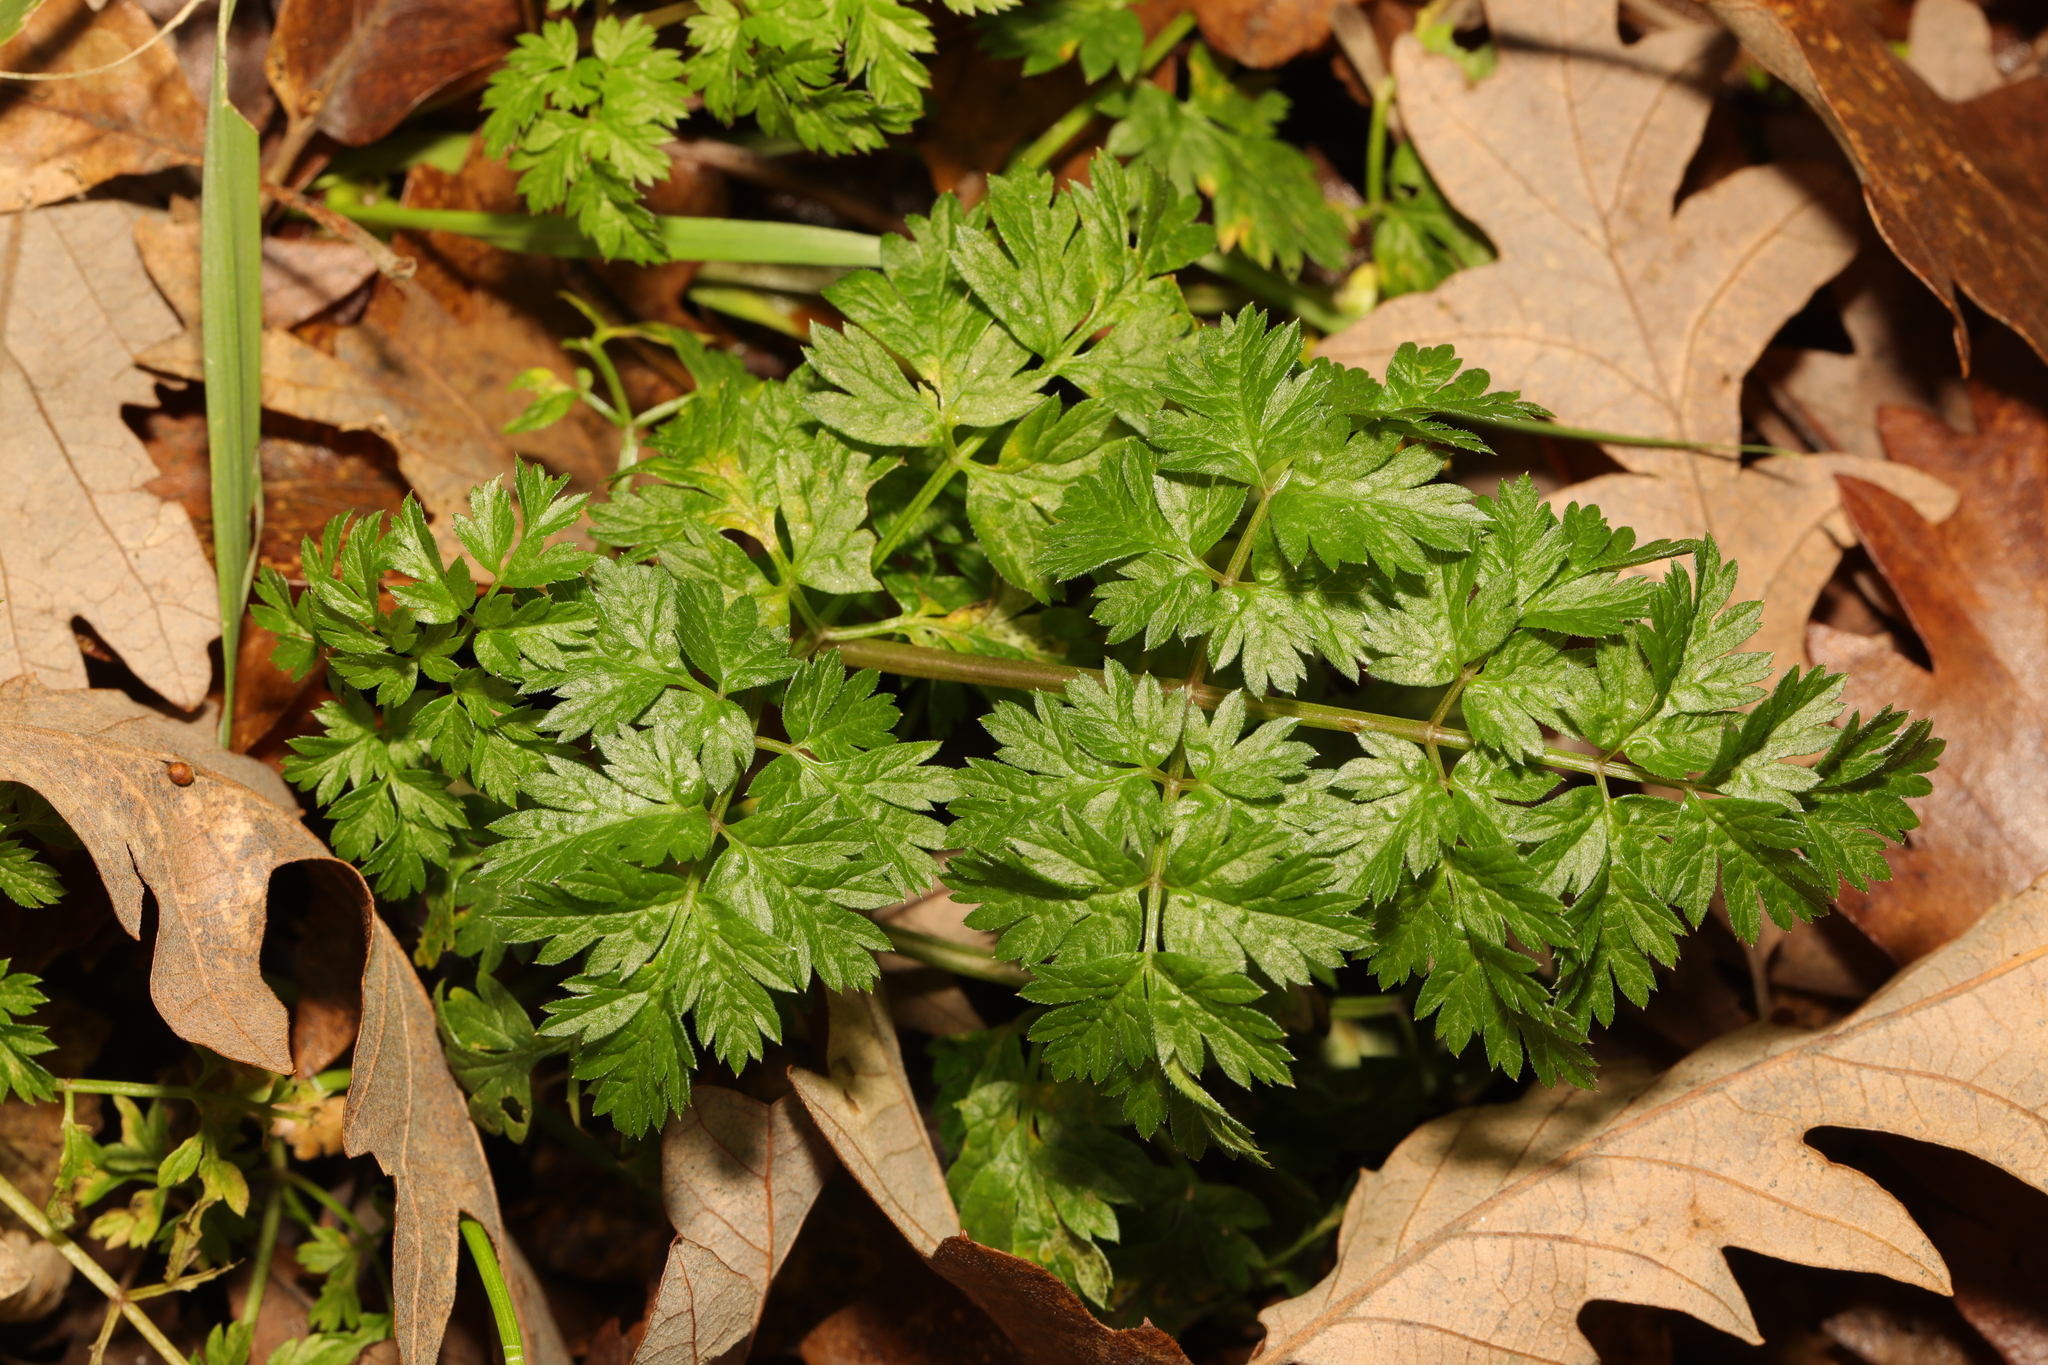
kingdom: Plantae
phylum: Tracheophyta
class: Magnoliopsida
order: Apiales
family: Apiaceae
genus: Anthriscus
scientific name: Anthriscus sylvestris
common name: Cow parsley
